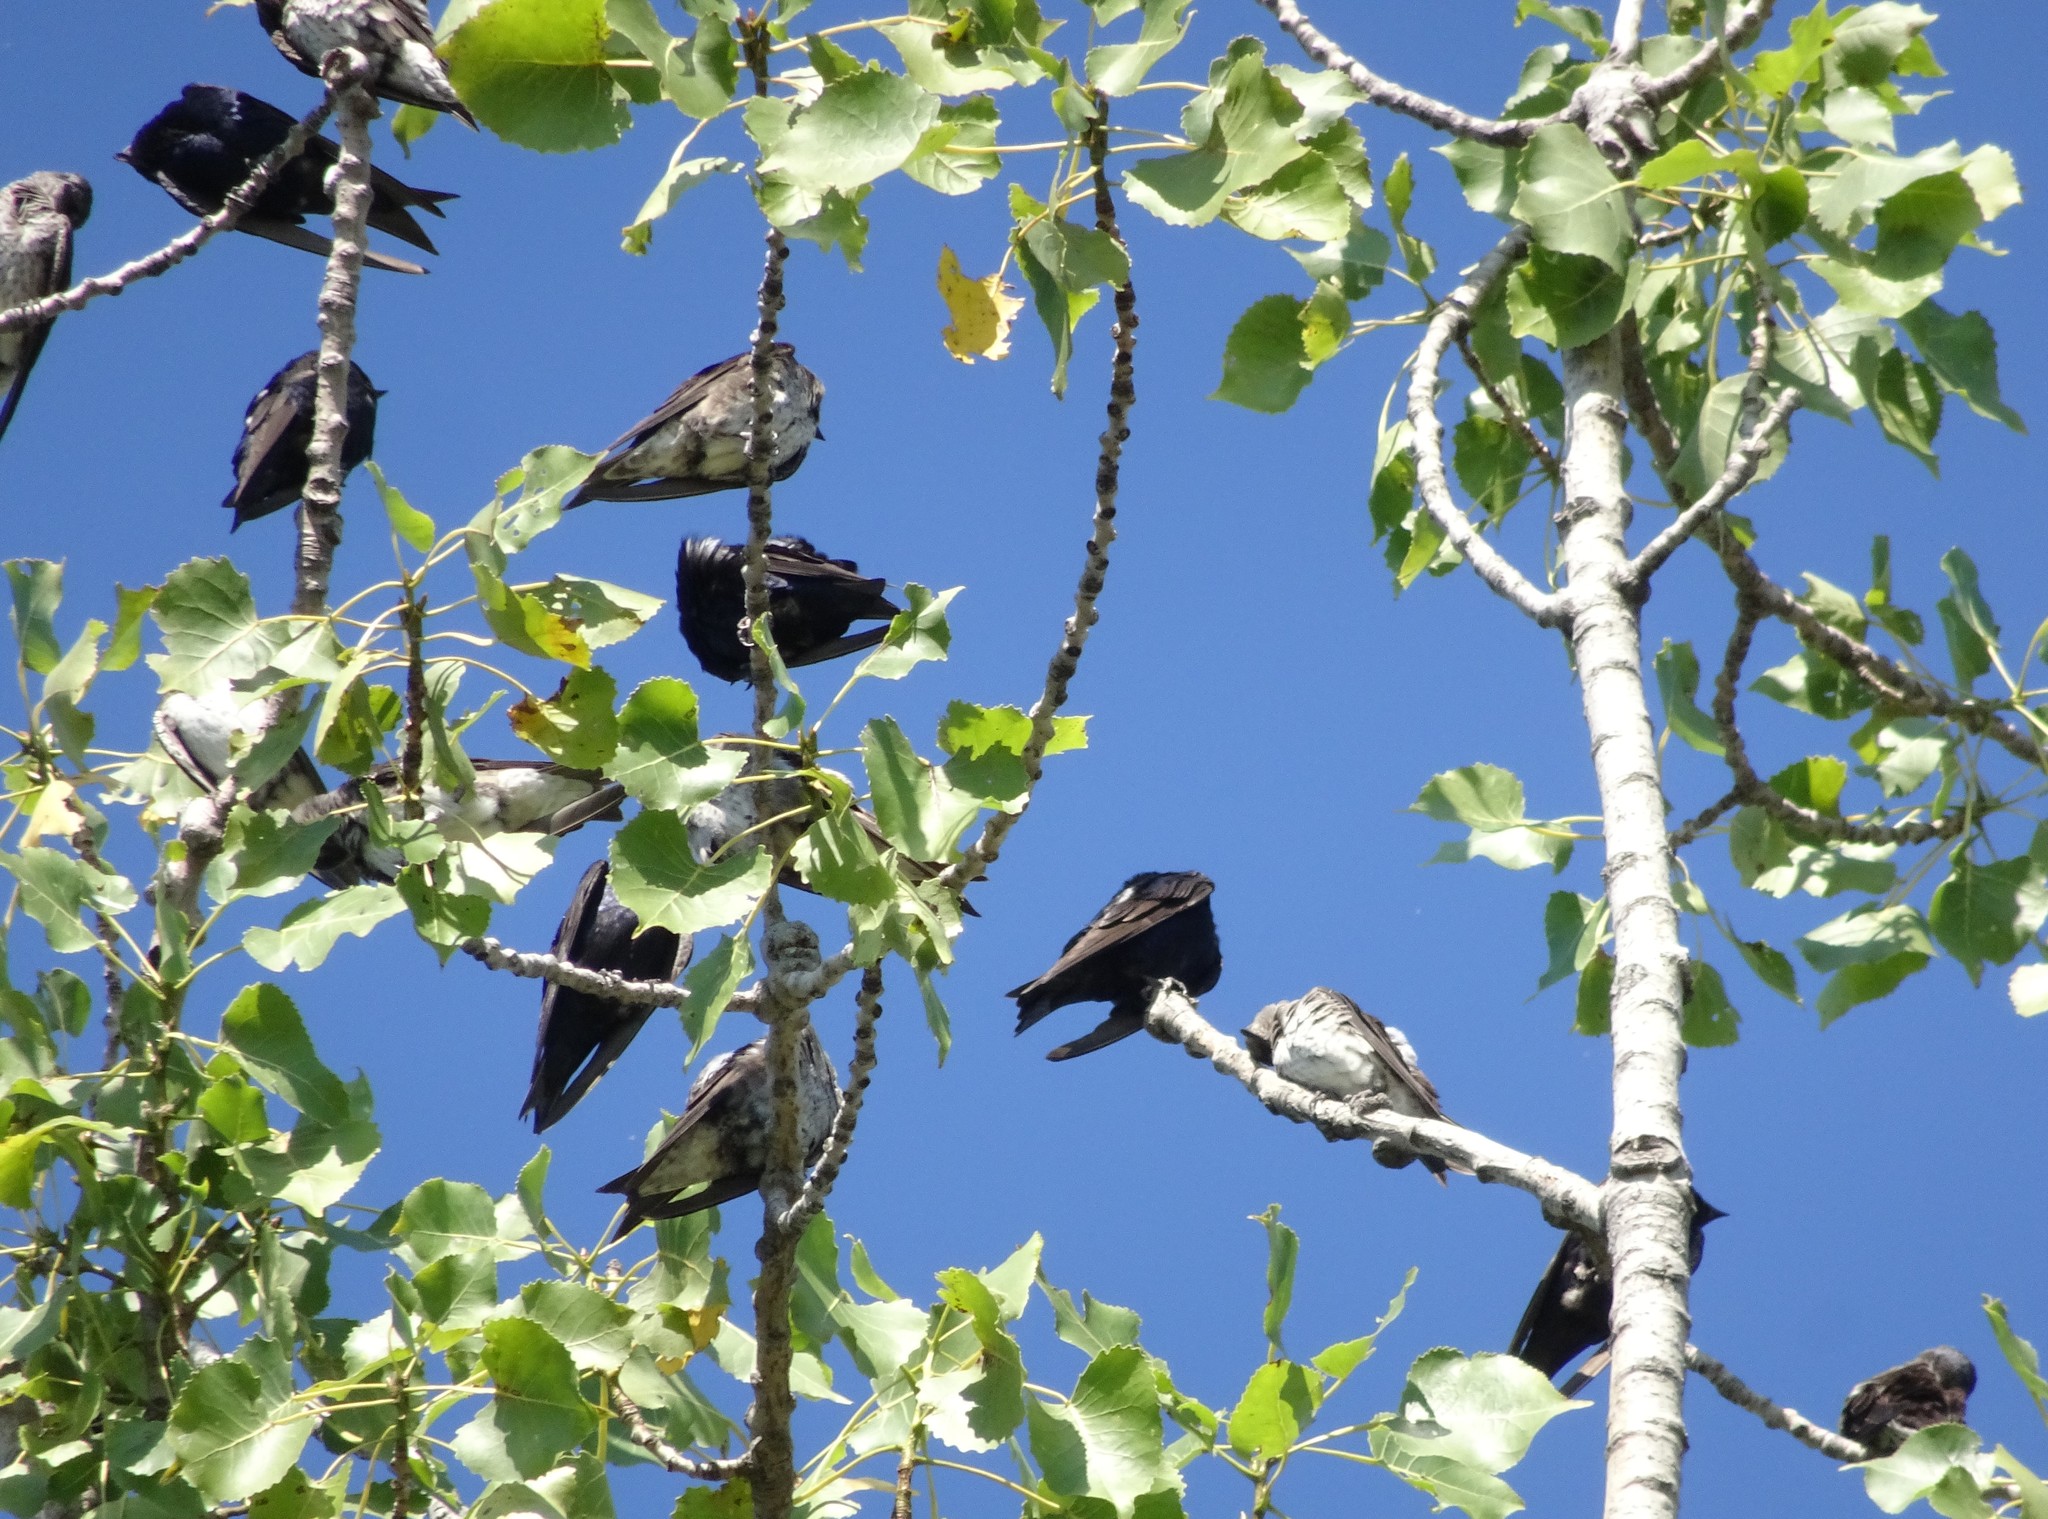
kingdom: Animalia
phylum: Chordata
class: Aves
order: Passeriformes
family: Hirundinidae
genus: Progne
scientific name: Progne subis
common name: Purple martin
